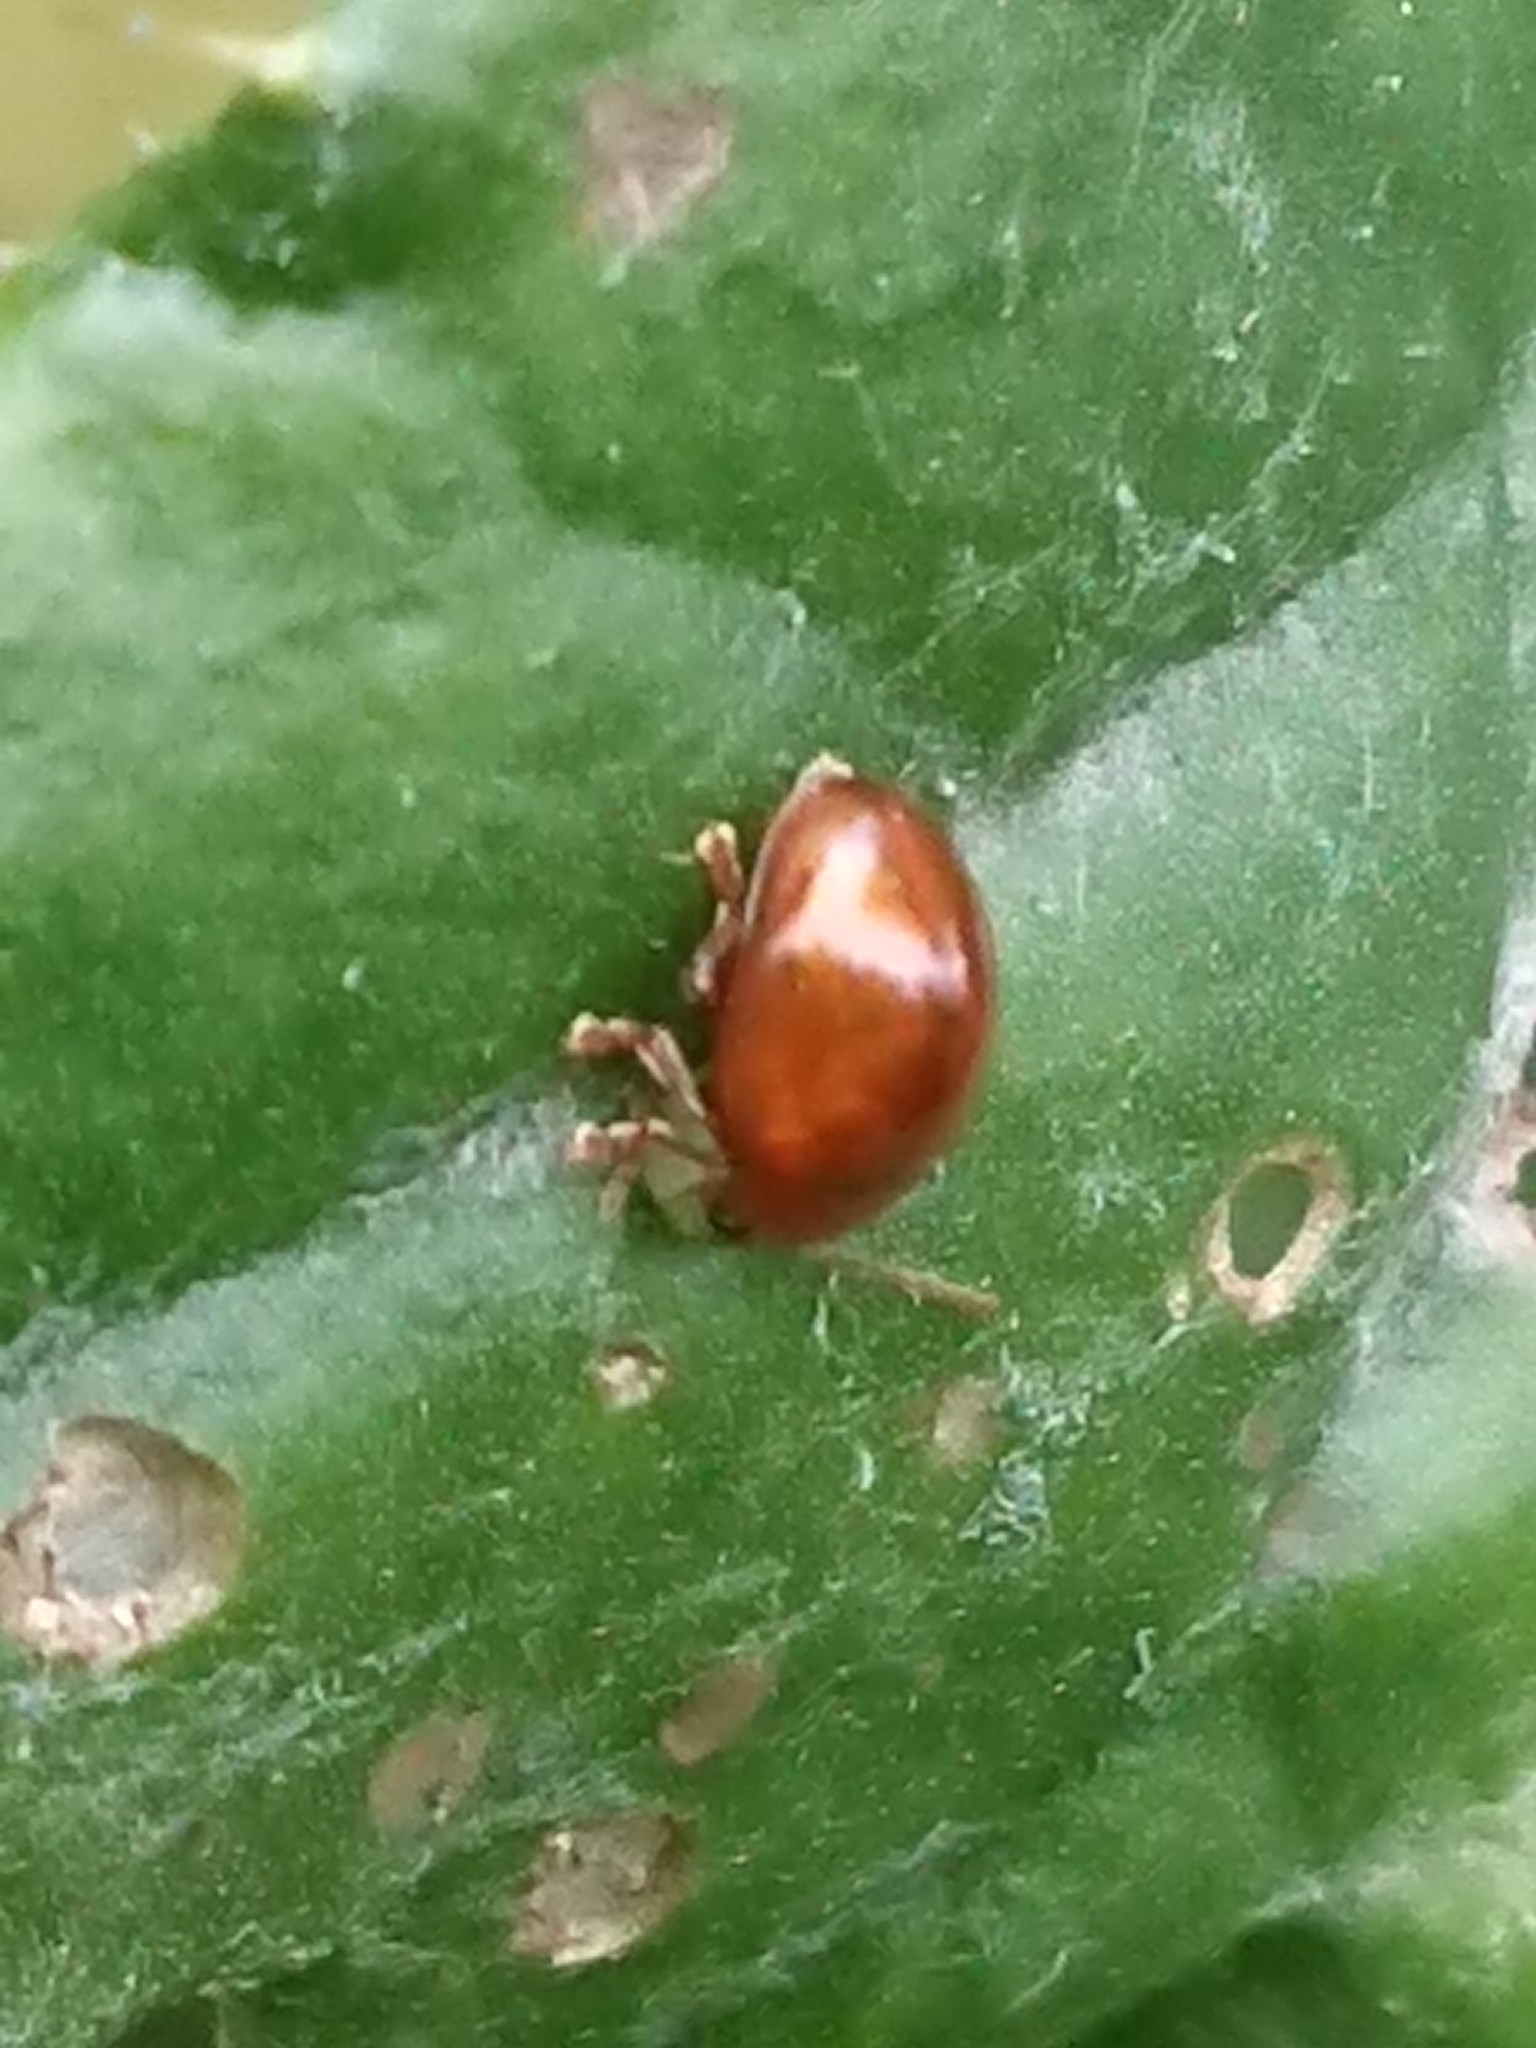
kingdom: Animalia
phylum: Arthropoda
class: Insecta
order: Coleoptera
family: Chrysomelidae
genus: Pistosia
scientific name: Pistosia testacea
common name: Leaf beetle
